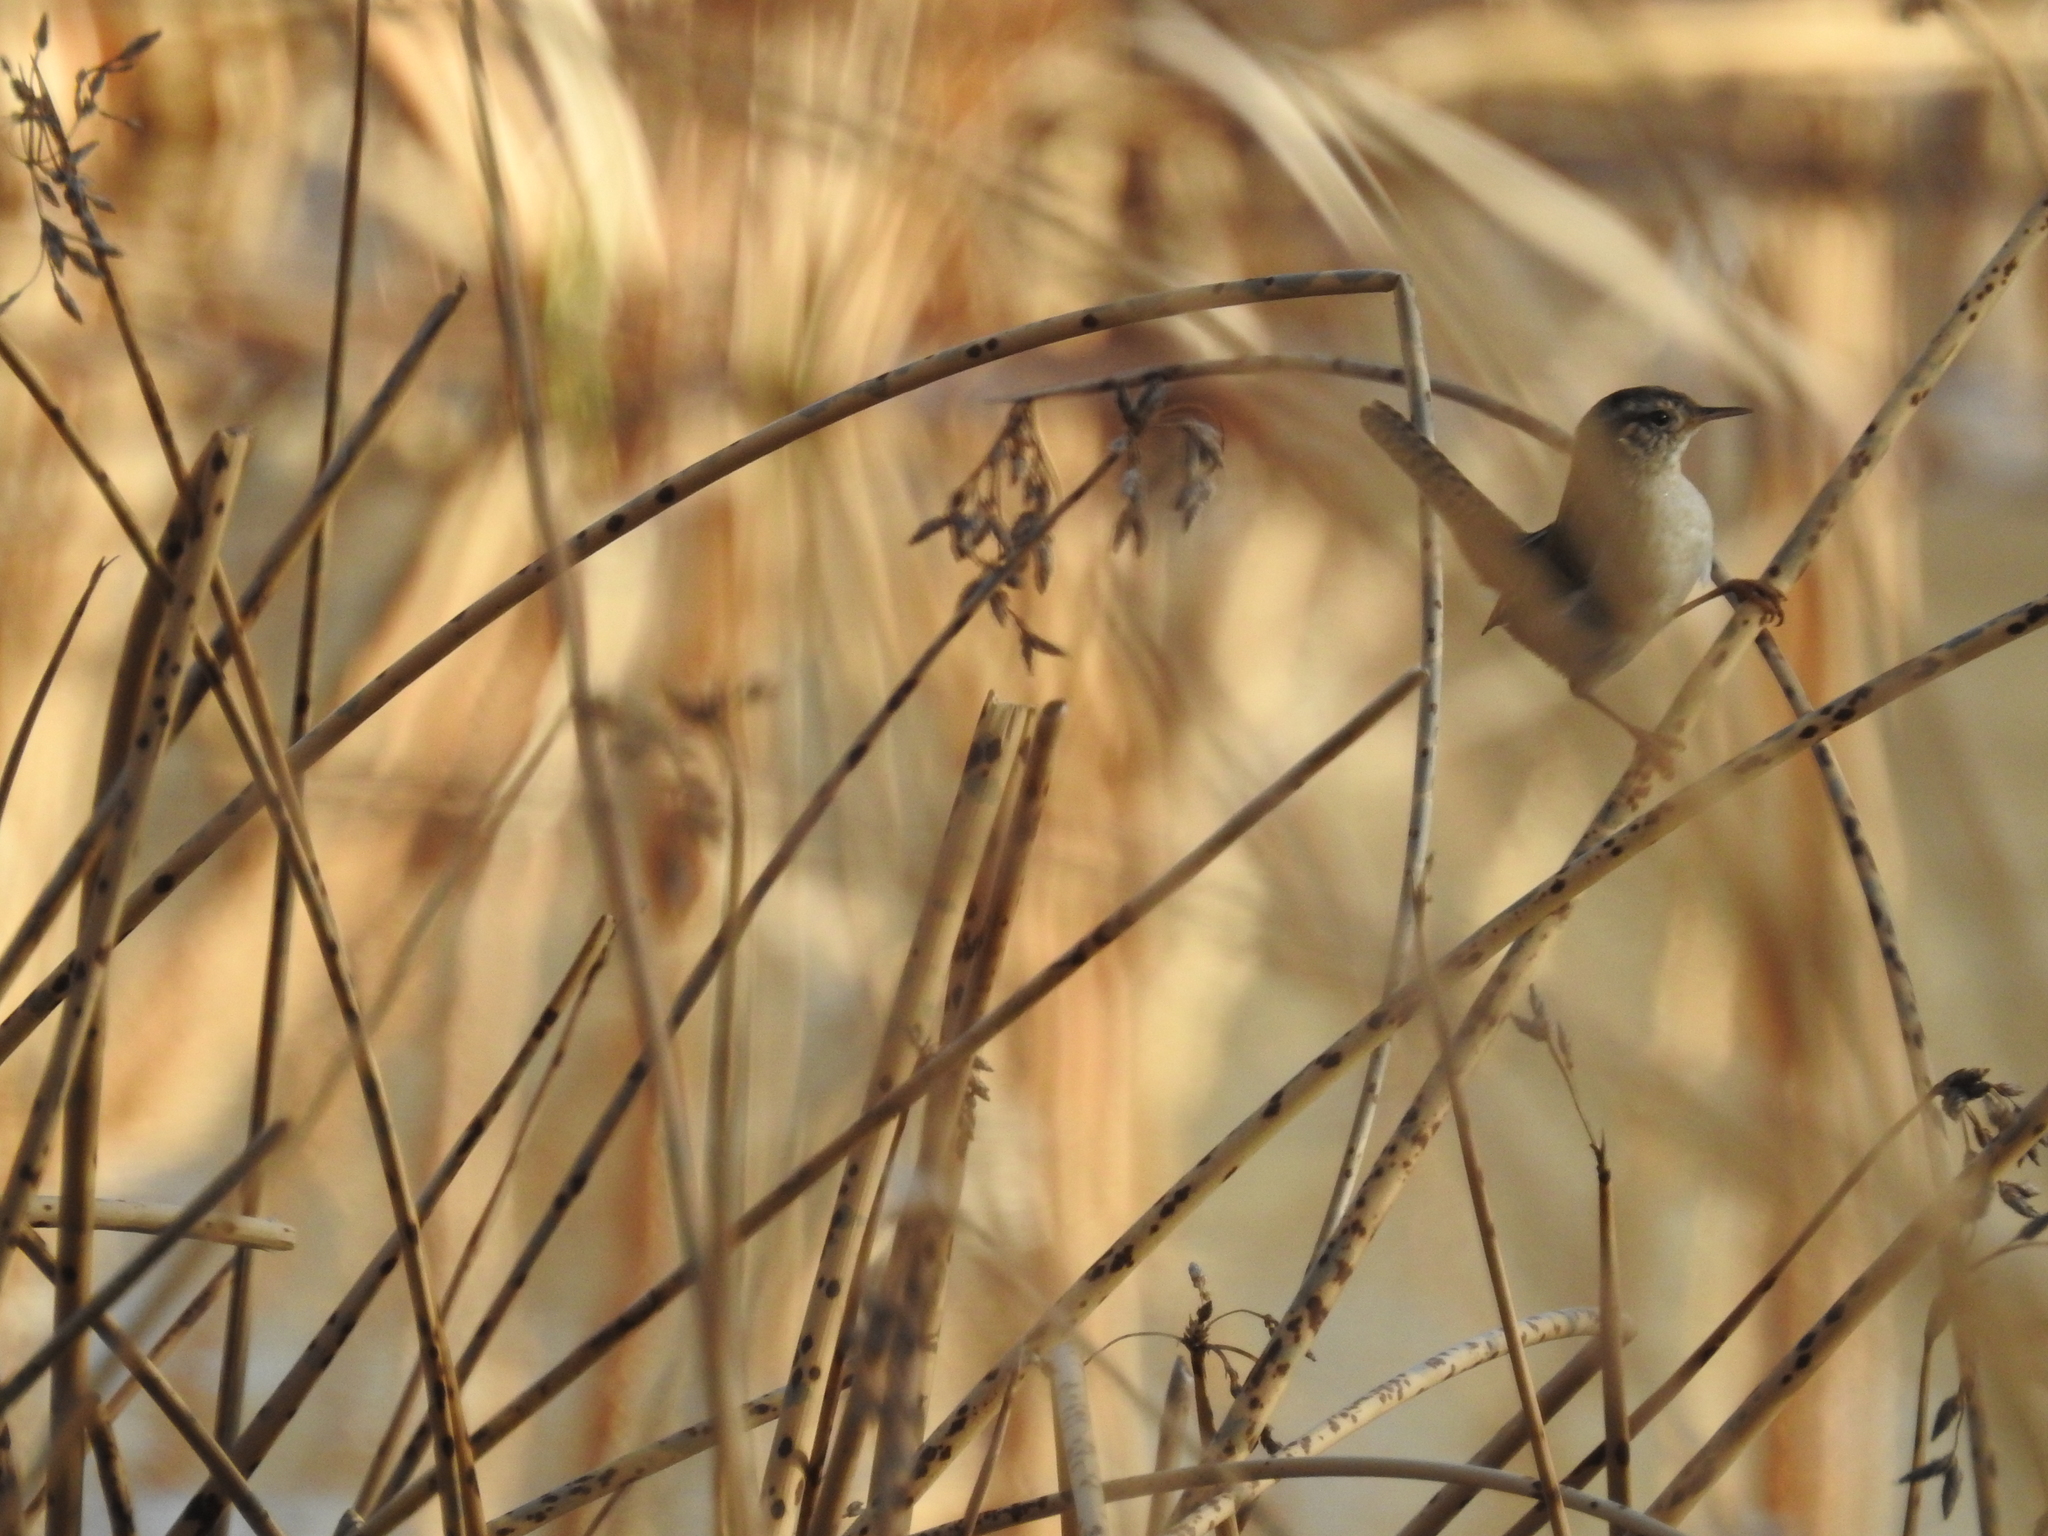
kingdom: Animalia
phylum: Chordata
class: Aves
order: Passeriformes
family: Troglodytidae
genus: Cistothorus
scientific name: Cistothorus palustris
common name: Marsh wren
